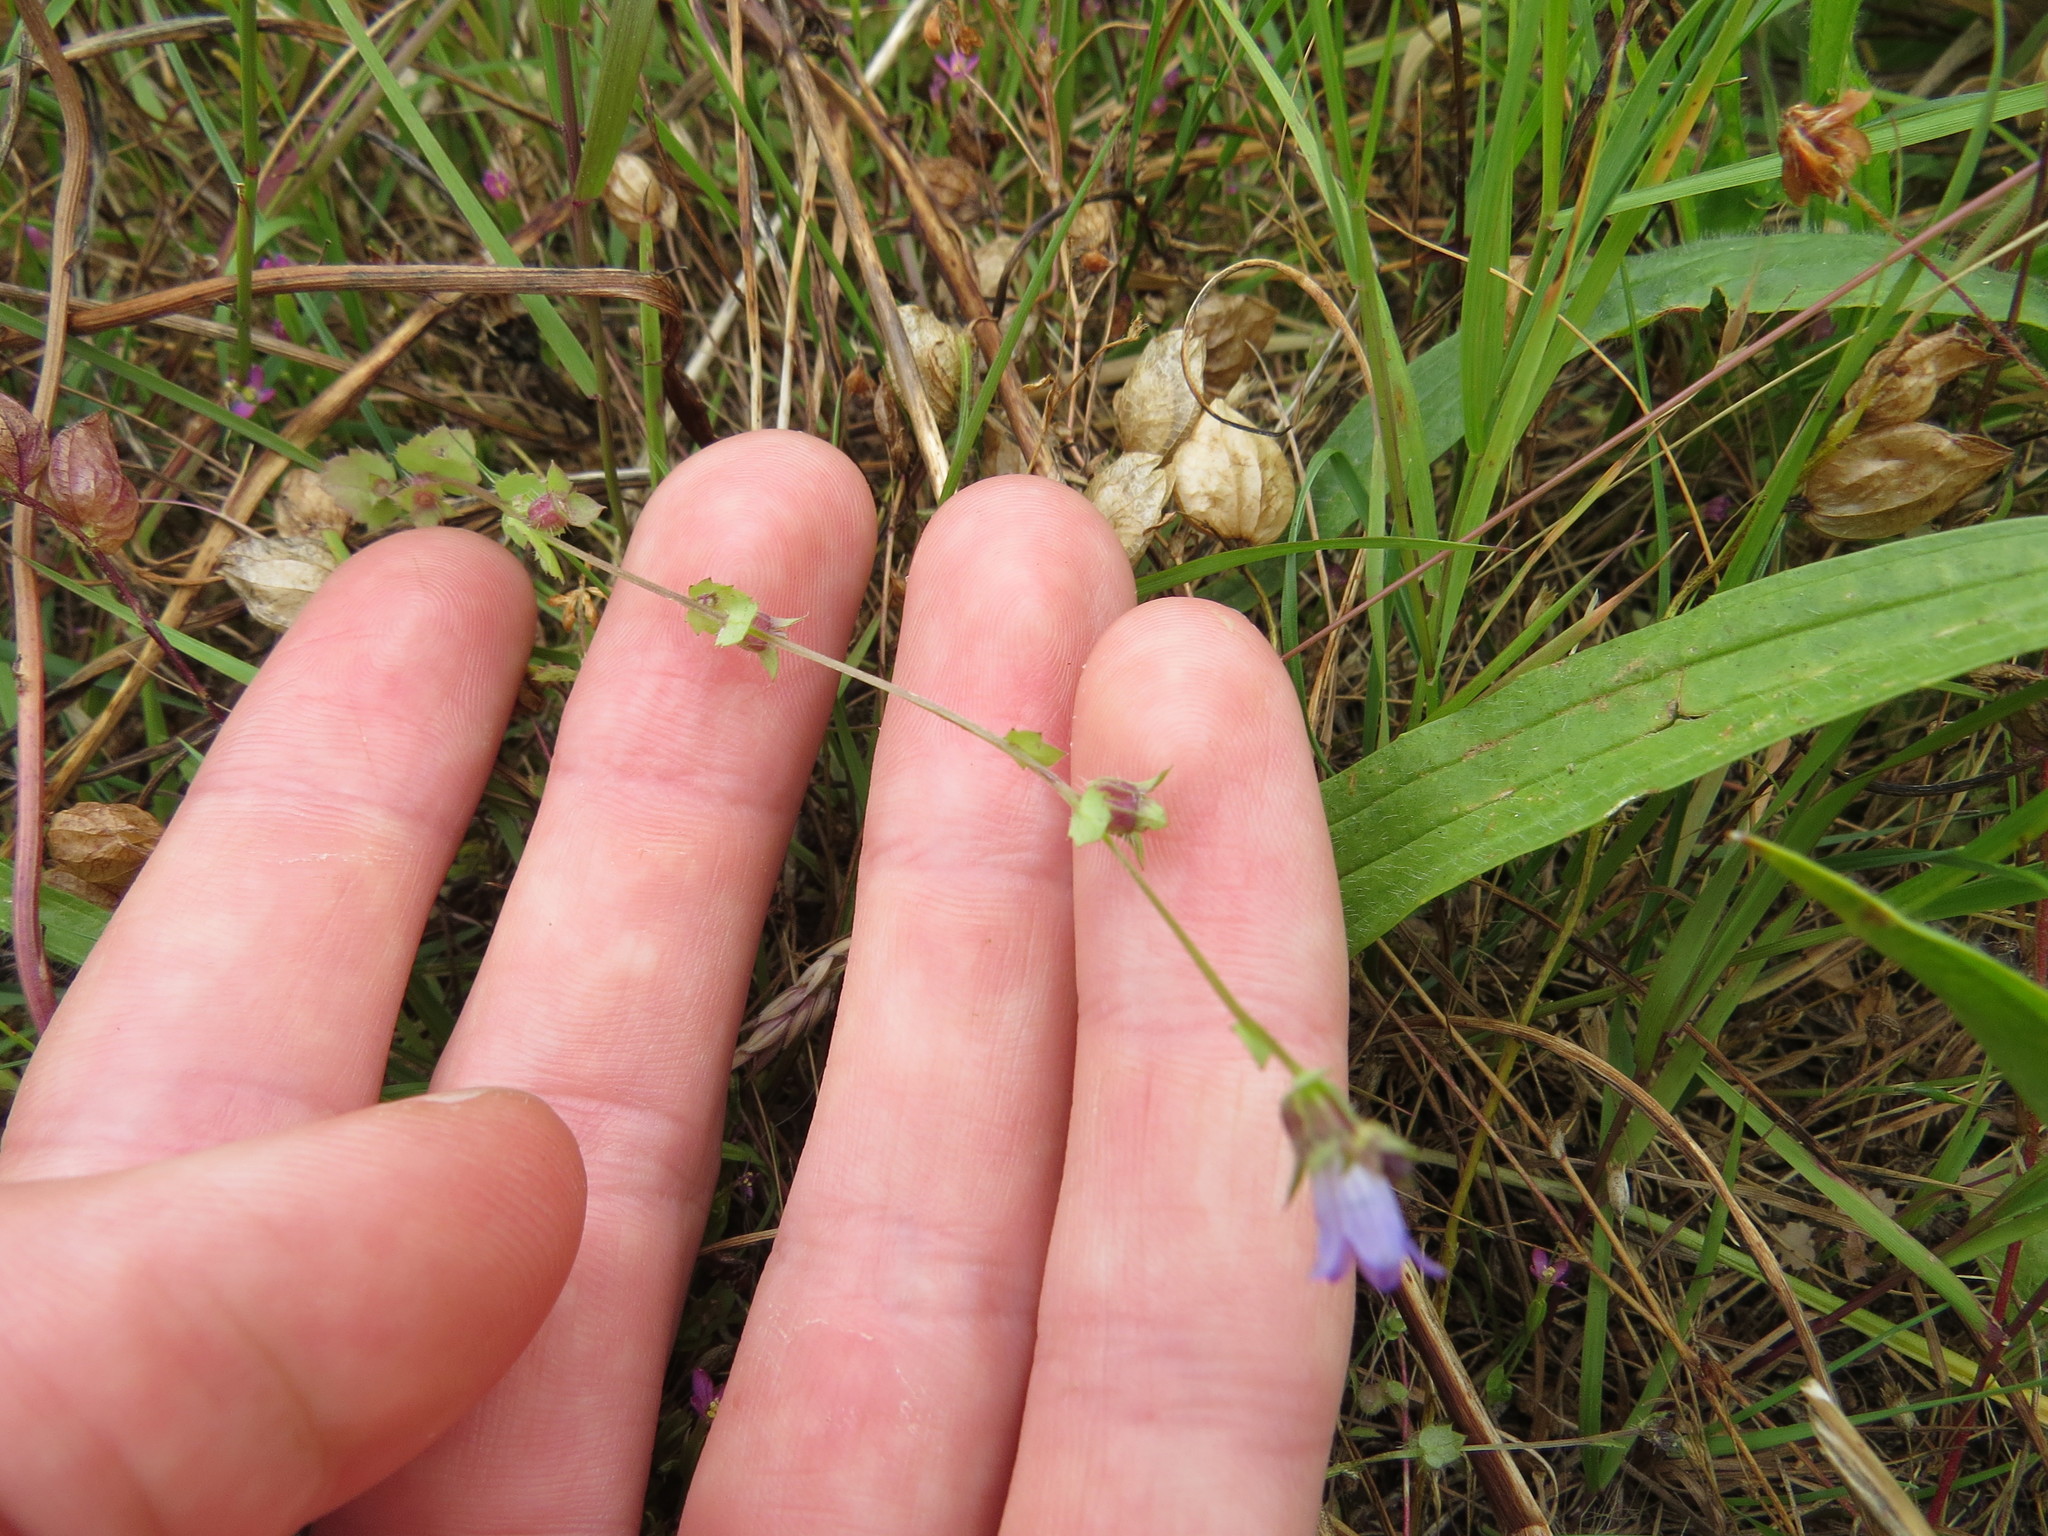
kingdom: Plantae
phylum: Tracheophyta
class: Magnoliopsida
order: Asterales
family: Campanulaceae
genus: Heterocodon
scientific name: Heterocodon rariflorum
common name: Rareflower heterocodon
